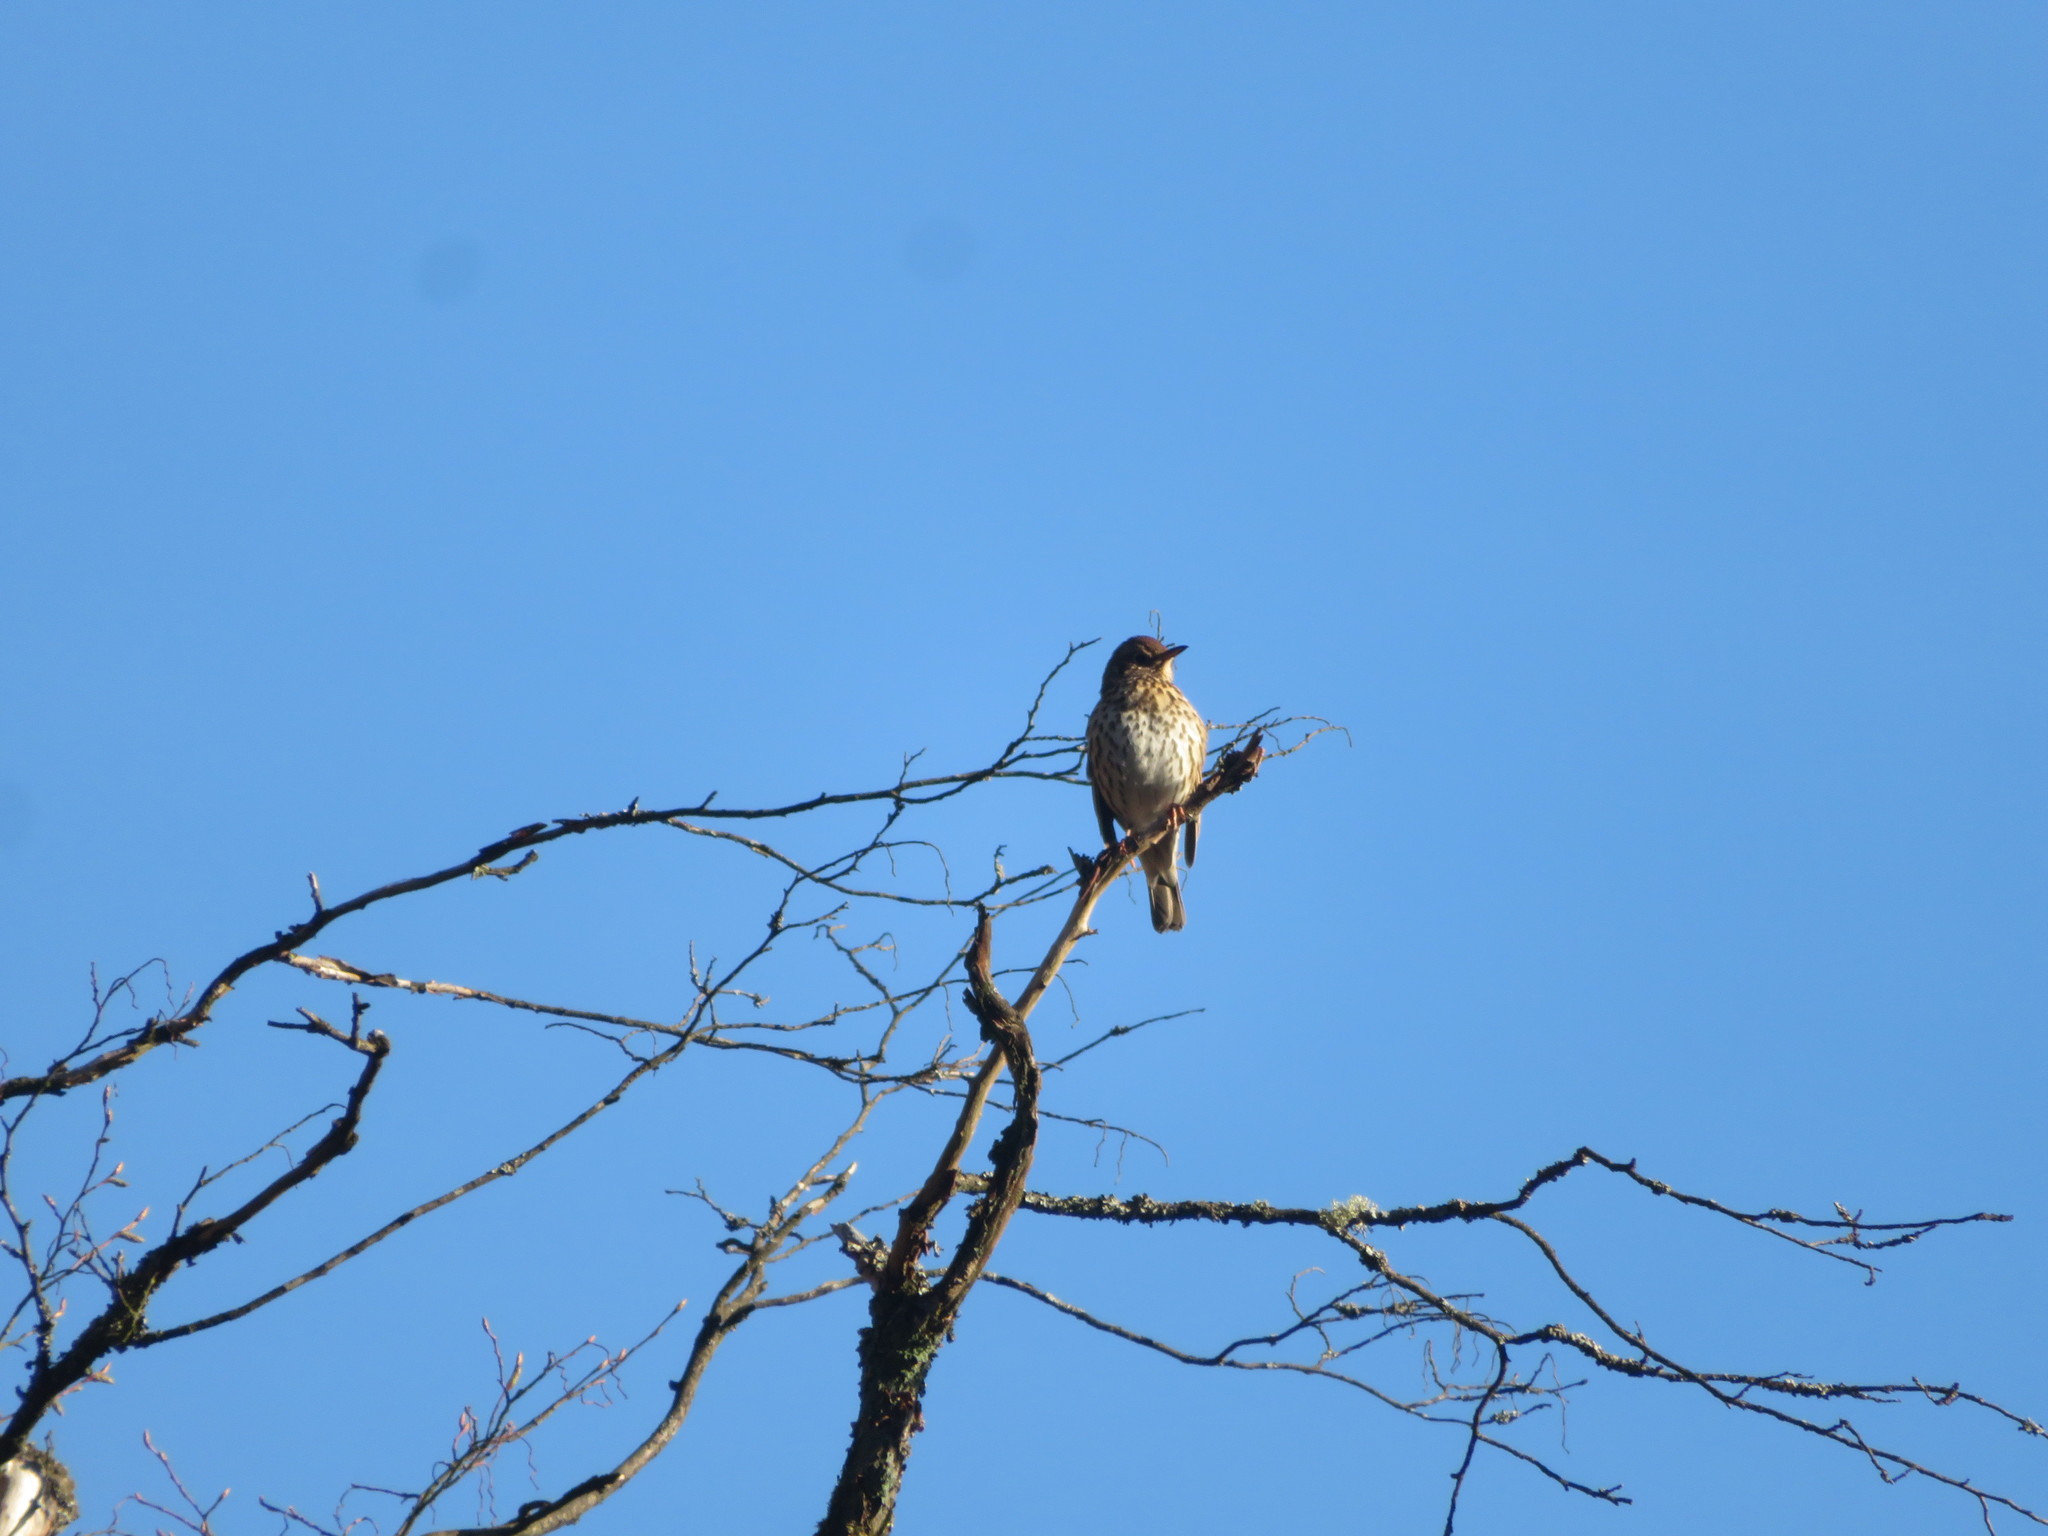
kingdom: Animalia
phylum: Chordata
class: Aves
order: Passeriformes
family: Turdidae
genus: Turdus
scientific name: Turdus philomelos
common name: Song thrush
